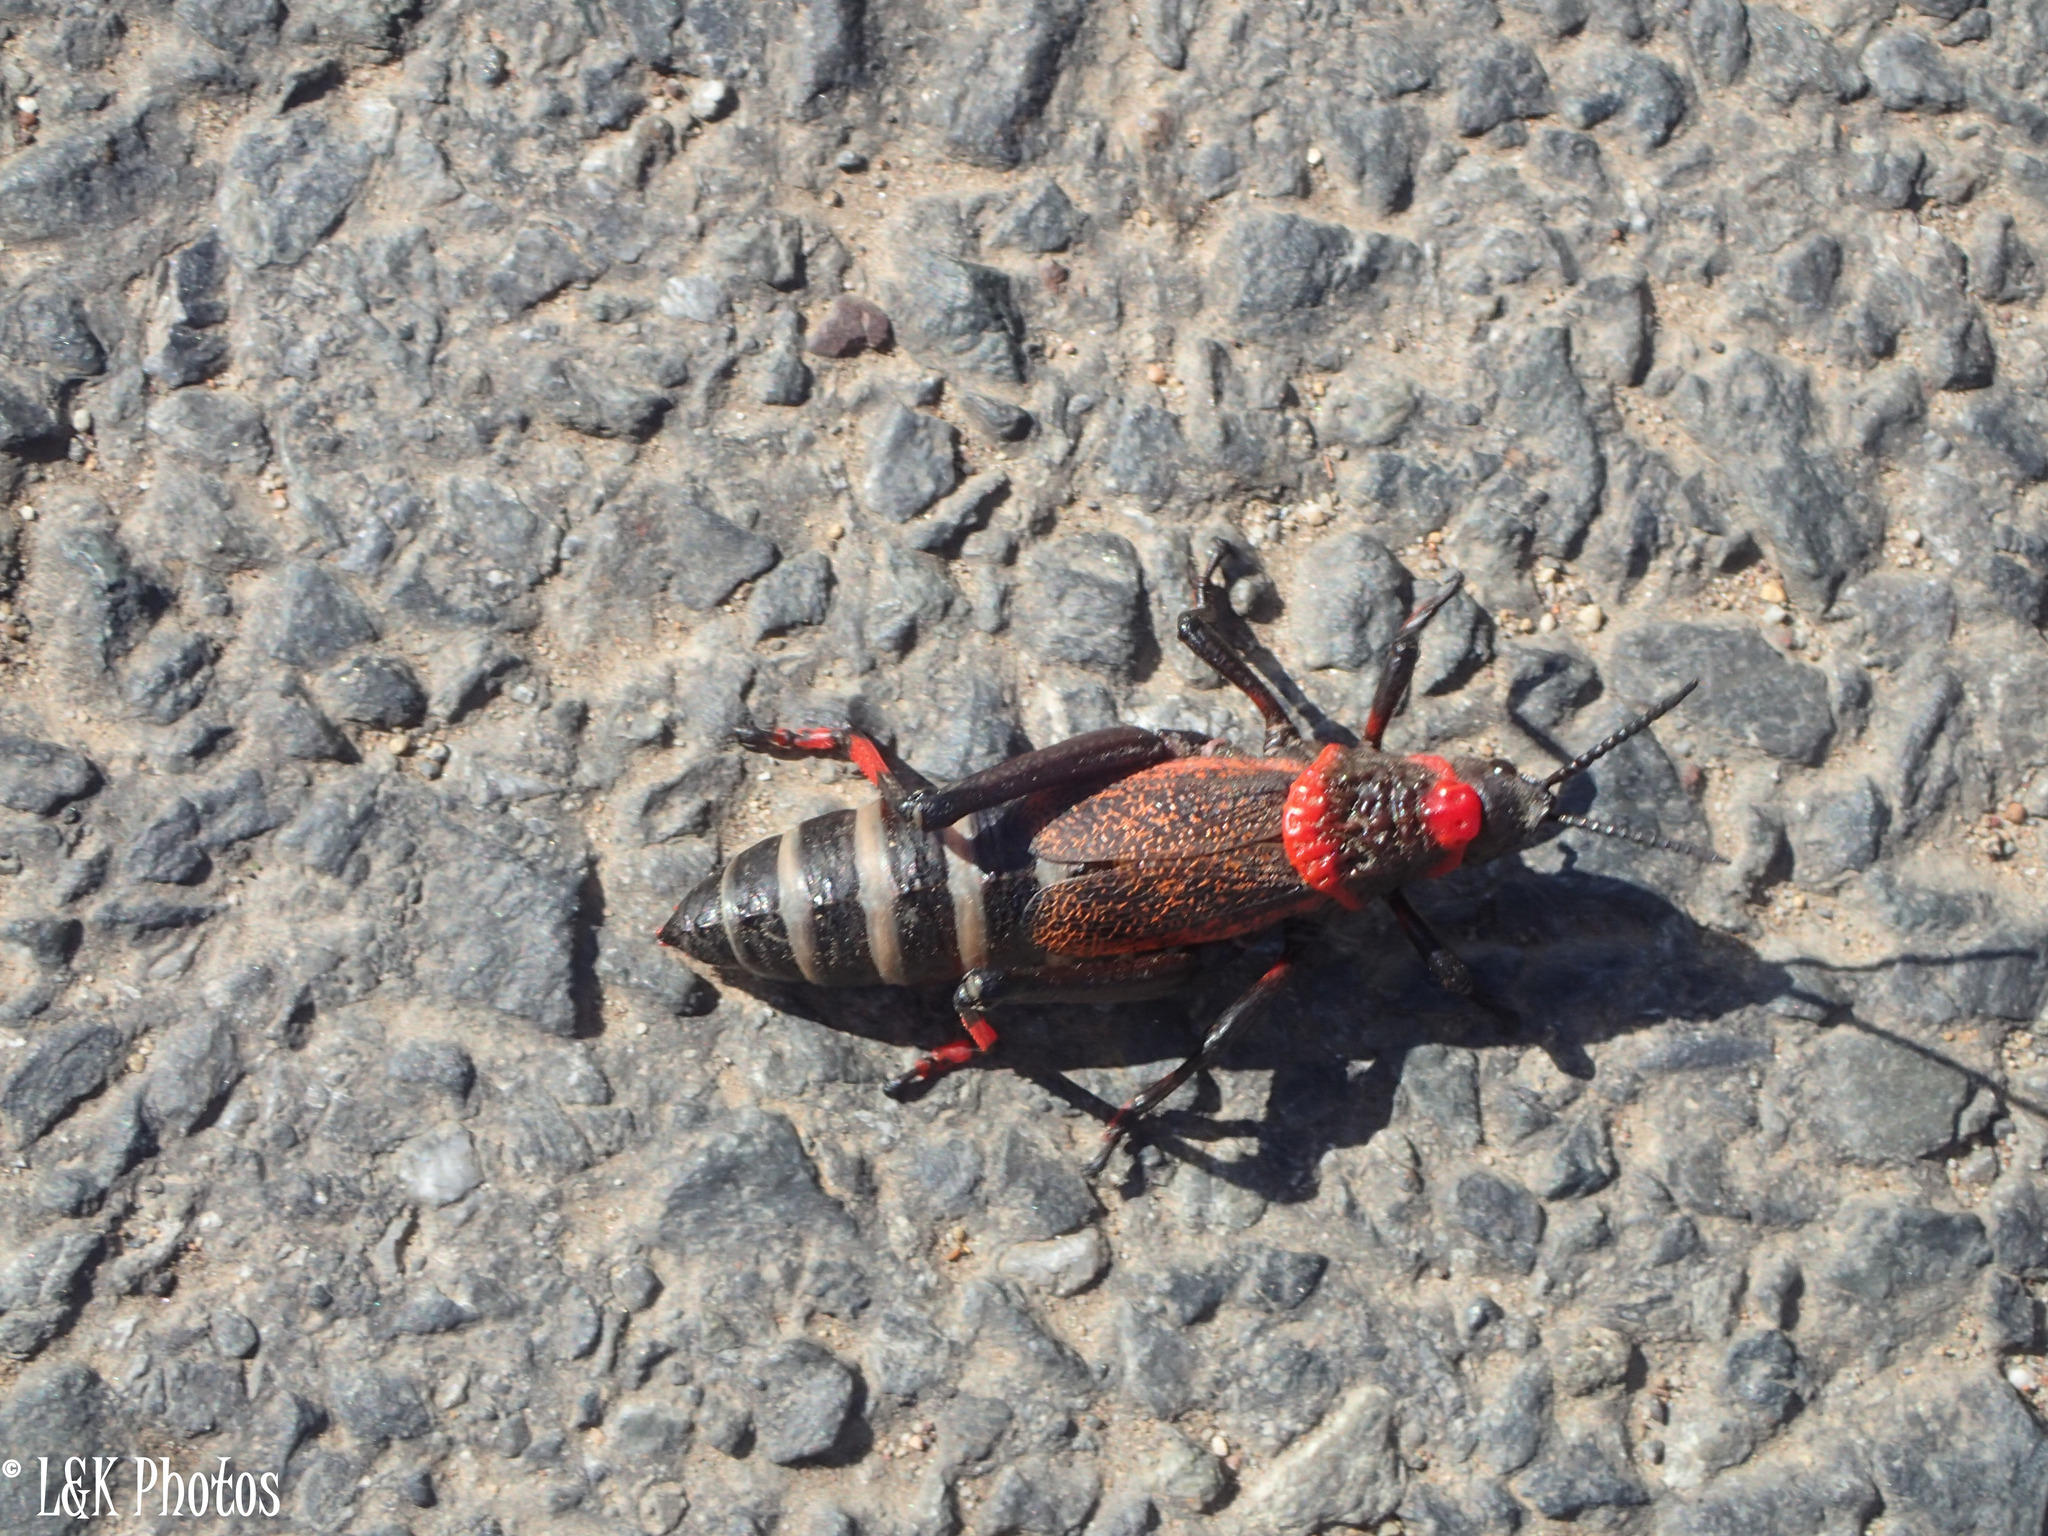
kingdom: Animalia
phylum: Arthropoda
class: Insecta
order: Orthoptera
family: Pyrgomorphidae
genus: Dictyophorus
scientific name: Dictyophorus spumans
